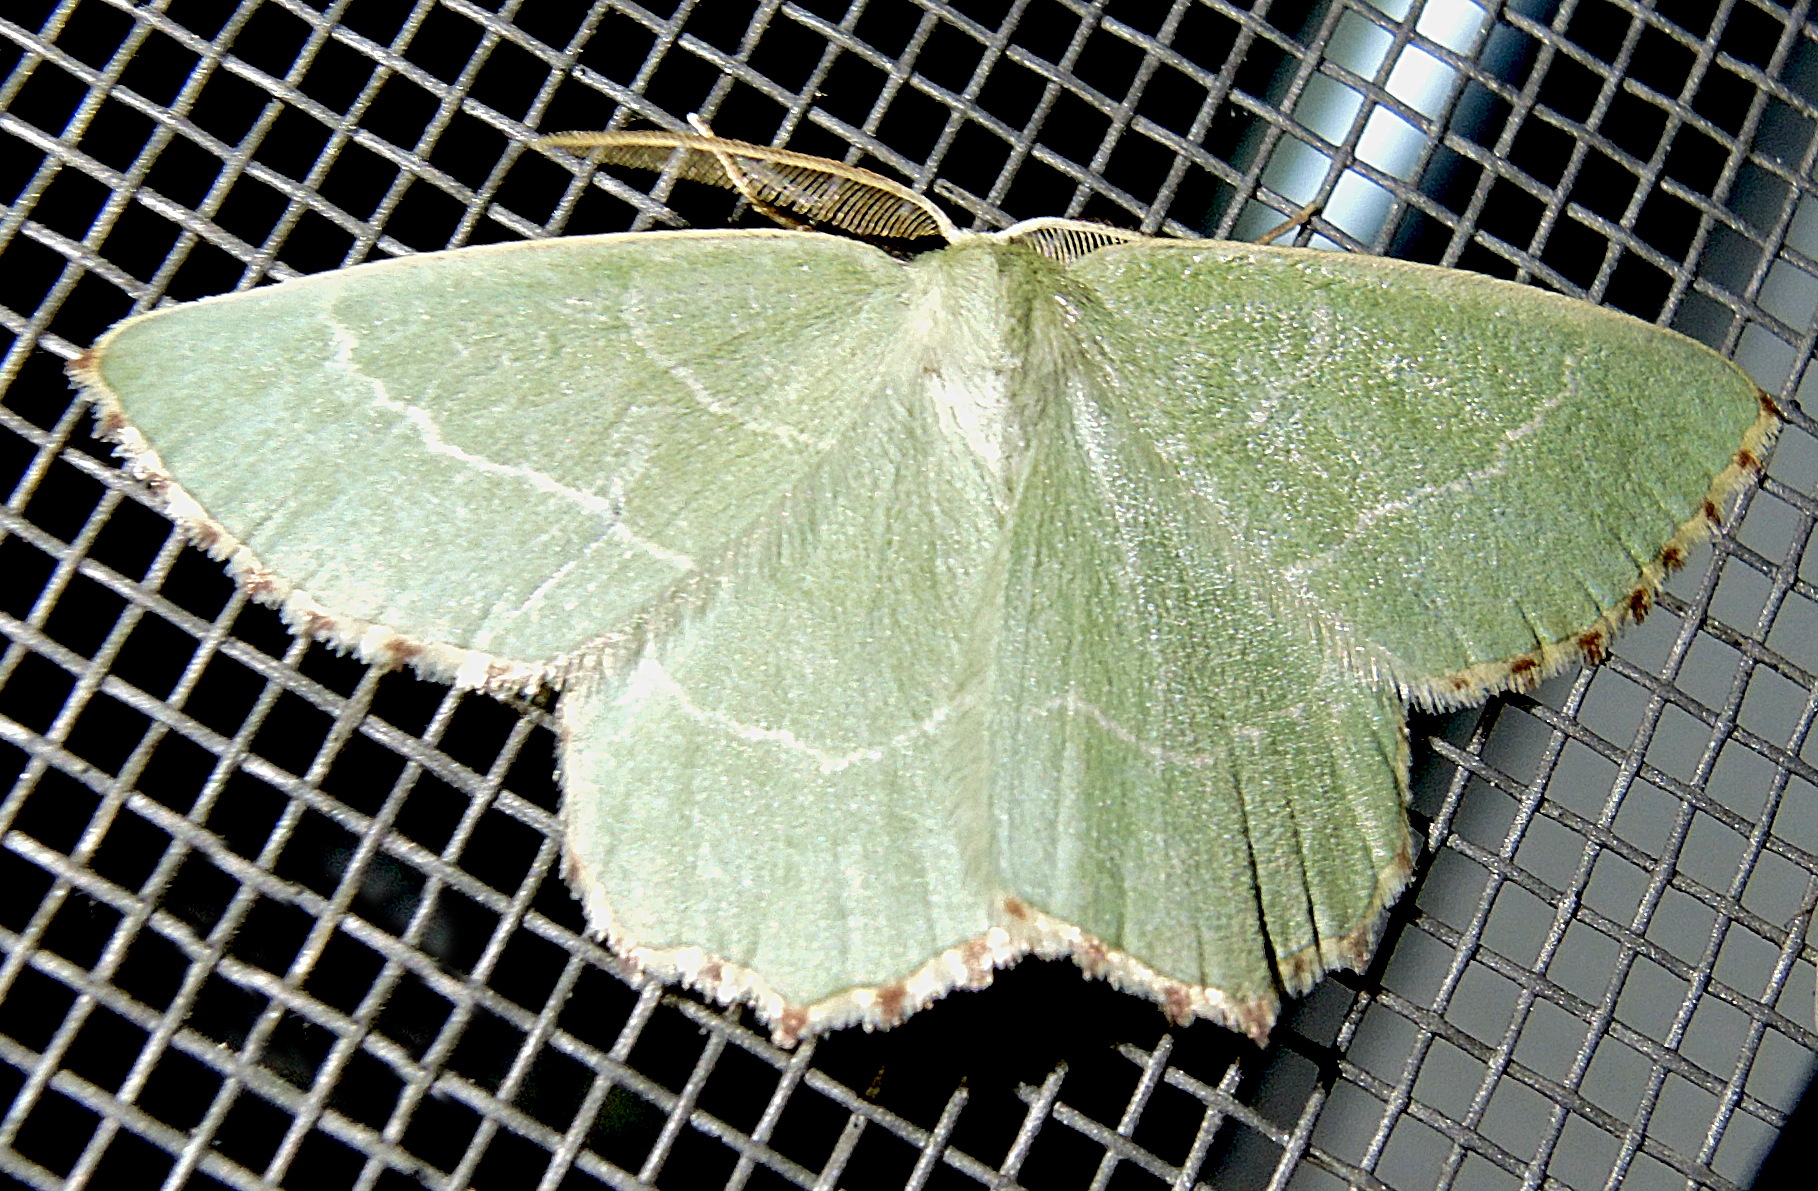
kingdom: Animalia
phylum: Arthropoda
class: Insecta
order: Lepidoptera
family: Geometridae
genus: Thalera
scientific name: Thalera fimbrialis
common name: Sussex emerald
